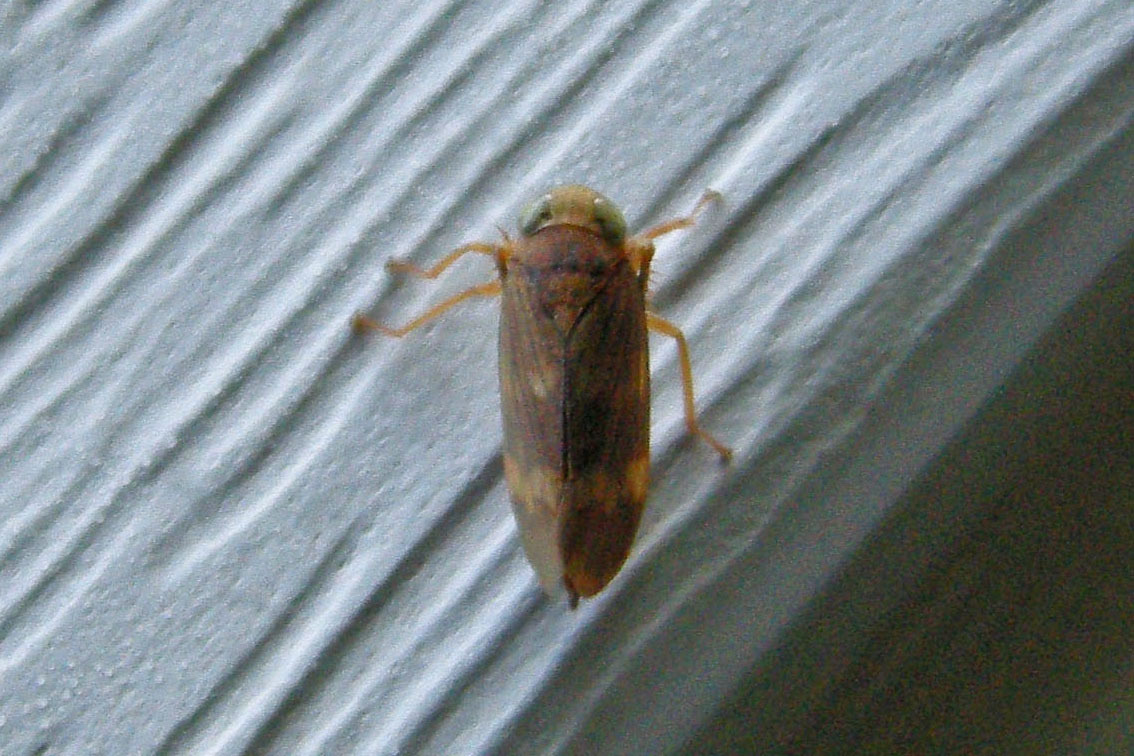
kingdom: Animalia
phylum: Arthropoda
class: Insecta
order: Hemiptera
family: Cicadellidae
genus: Jikradia
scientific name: Jikradia olitoria
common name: Coppery leafhopper
